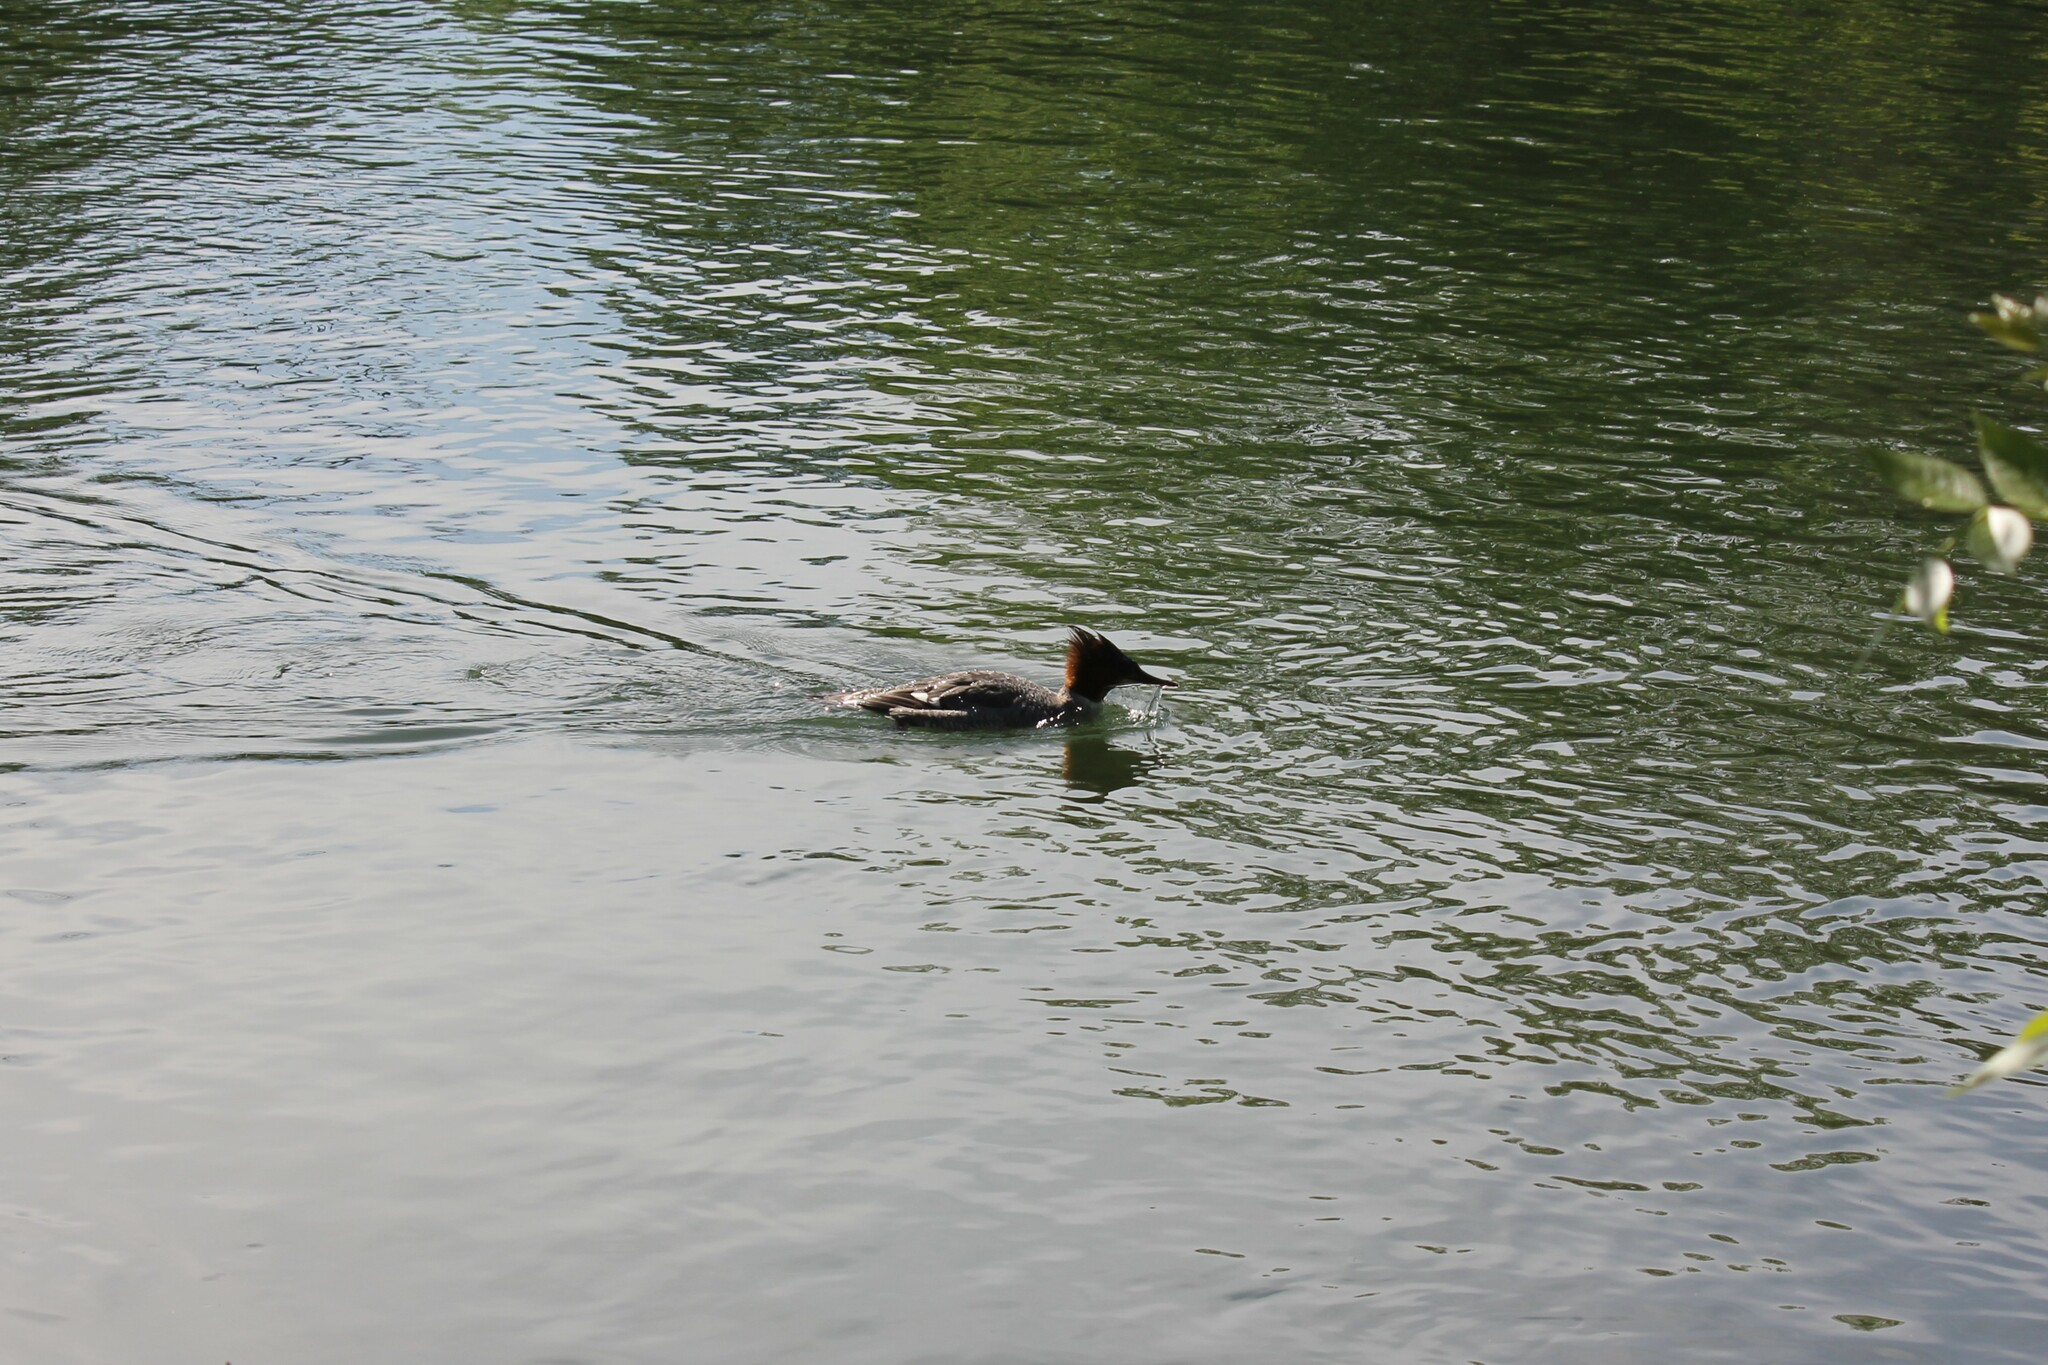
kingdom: Animalia
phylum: Chordata
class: Aves
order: Anseriformes
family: Anatidae
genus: Mergus
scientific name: Mergus merganser
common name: Common merganser
